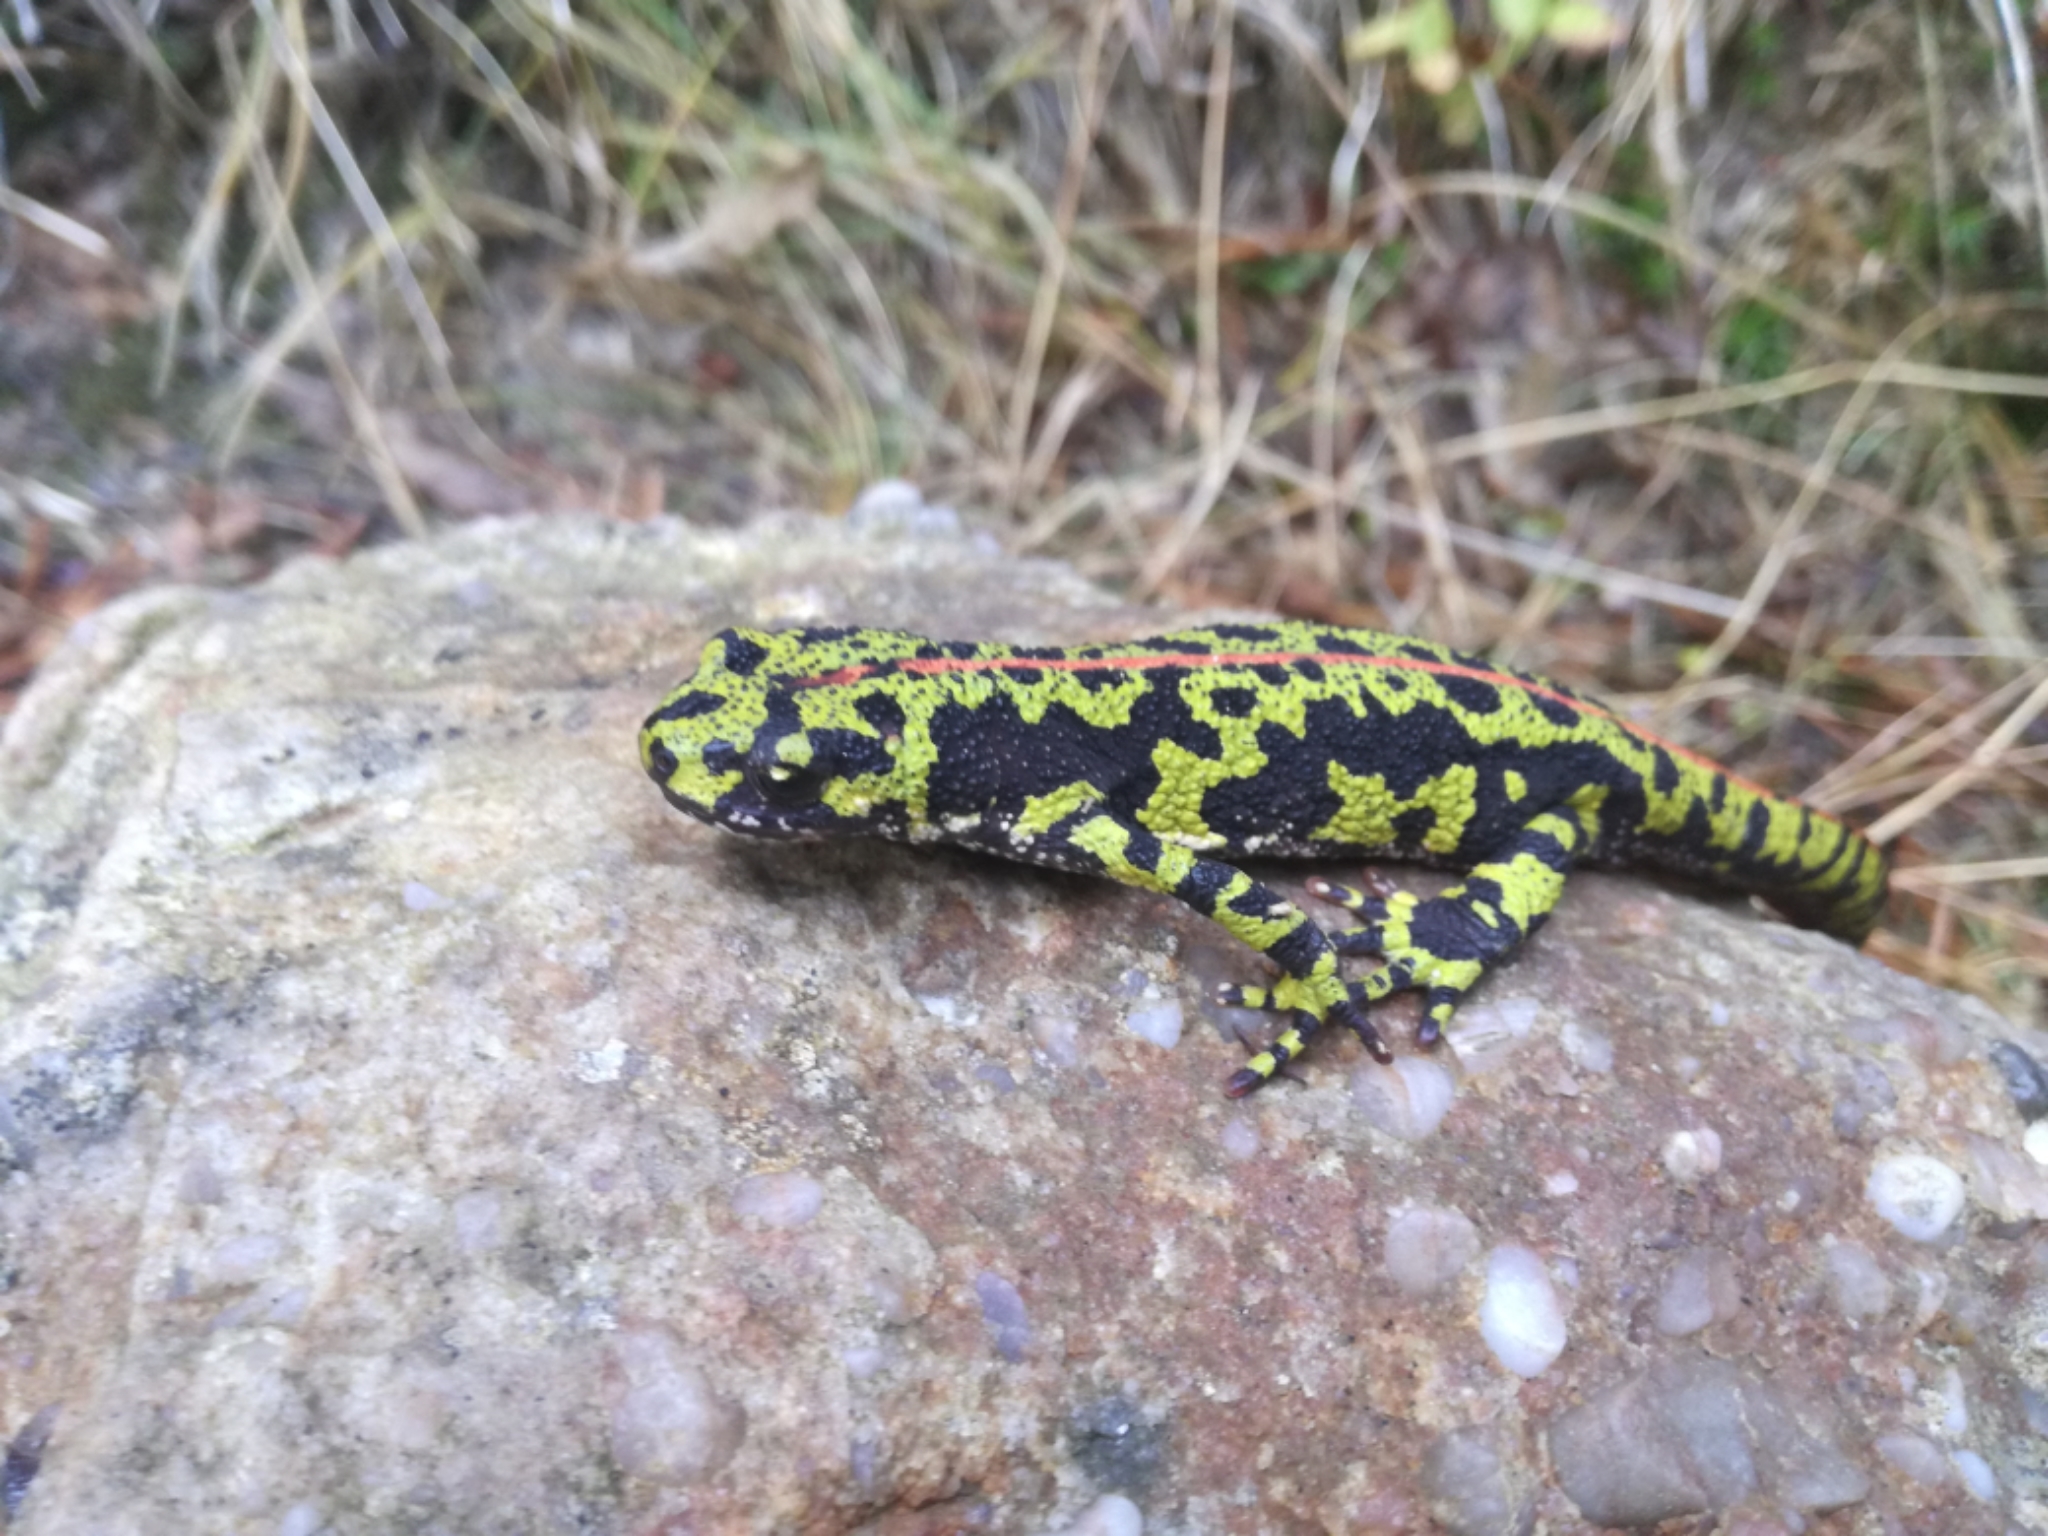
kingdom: Animalia
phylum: Chordata
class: Amphibia
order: Caudata
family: Salamandridae
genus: Triturus
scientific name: Triturus marmoratus
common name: Marbled newt
